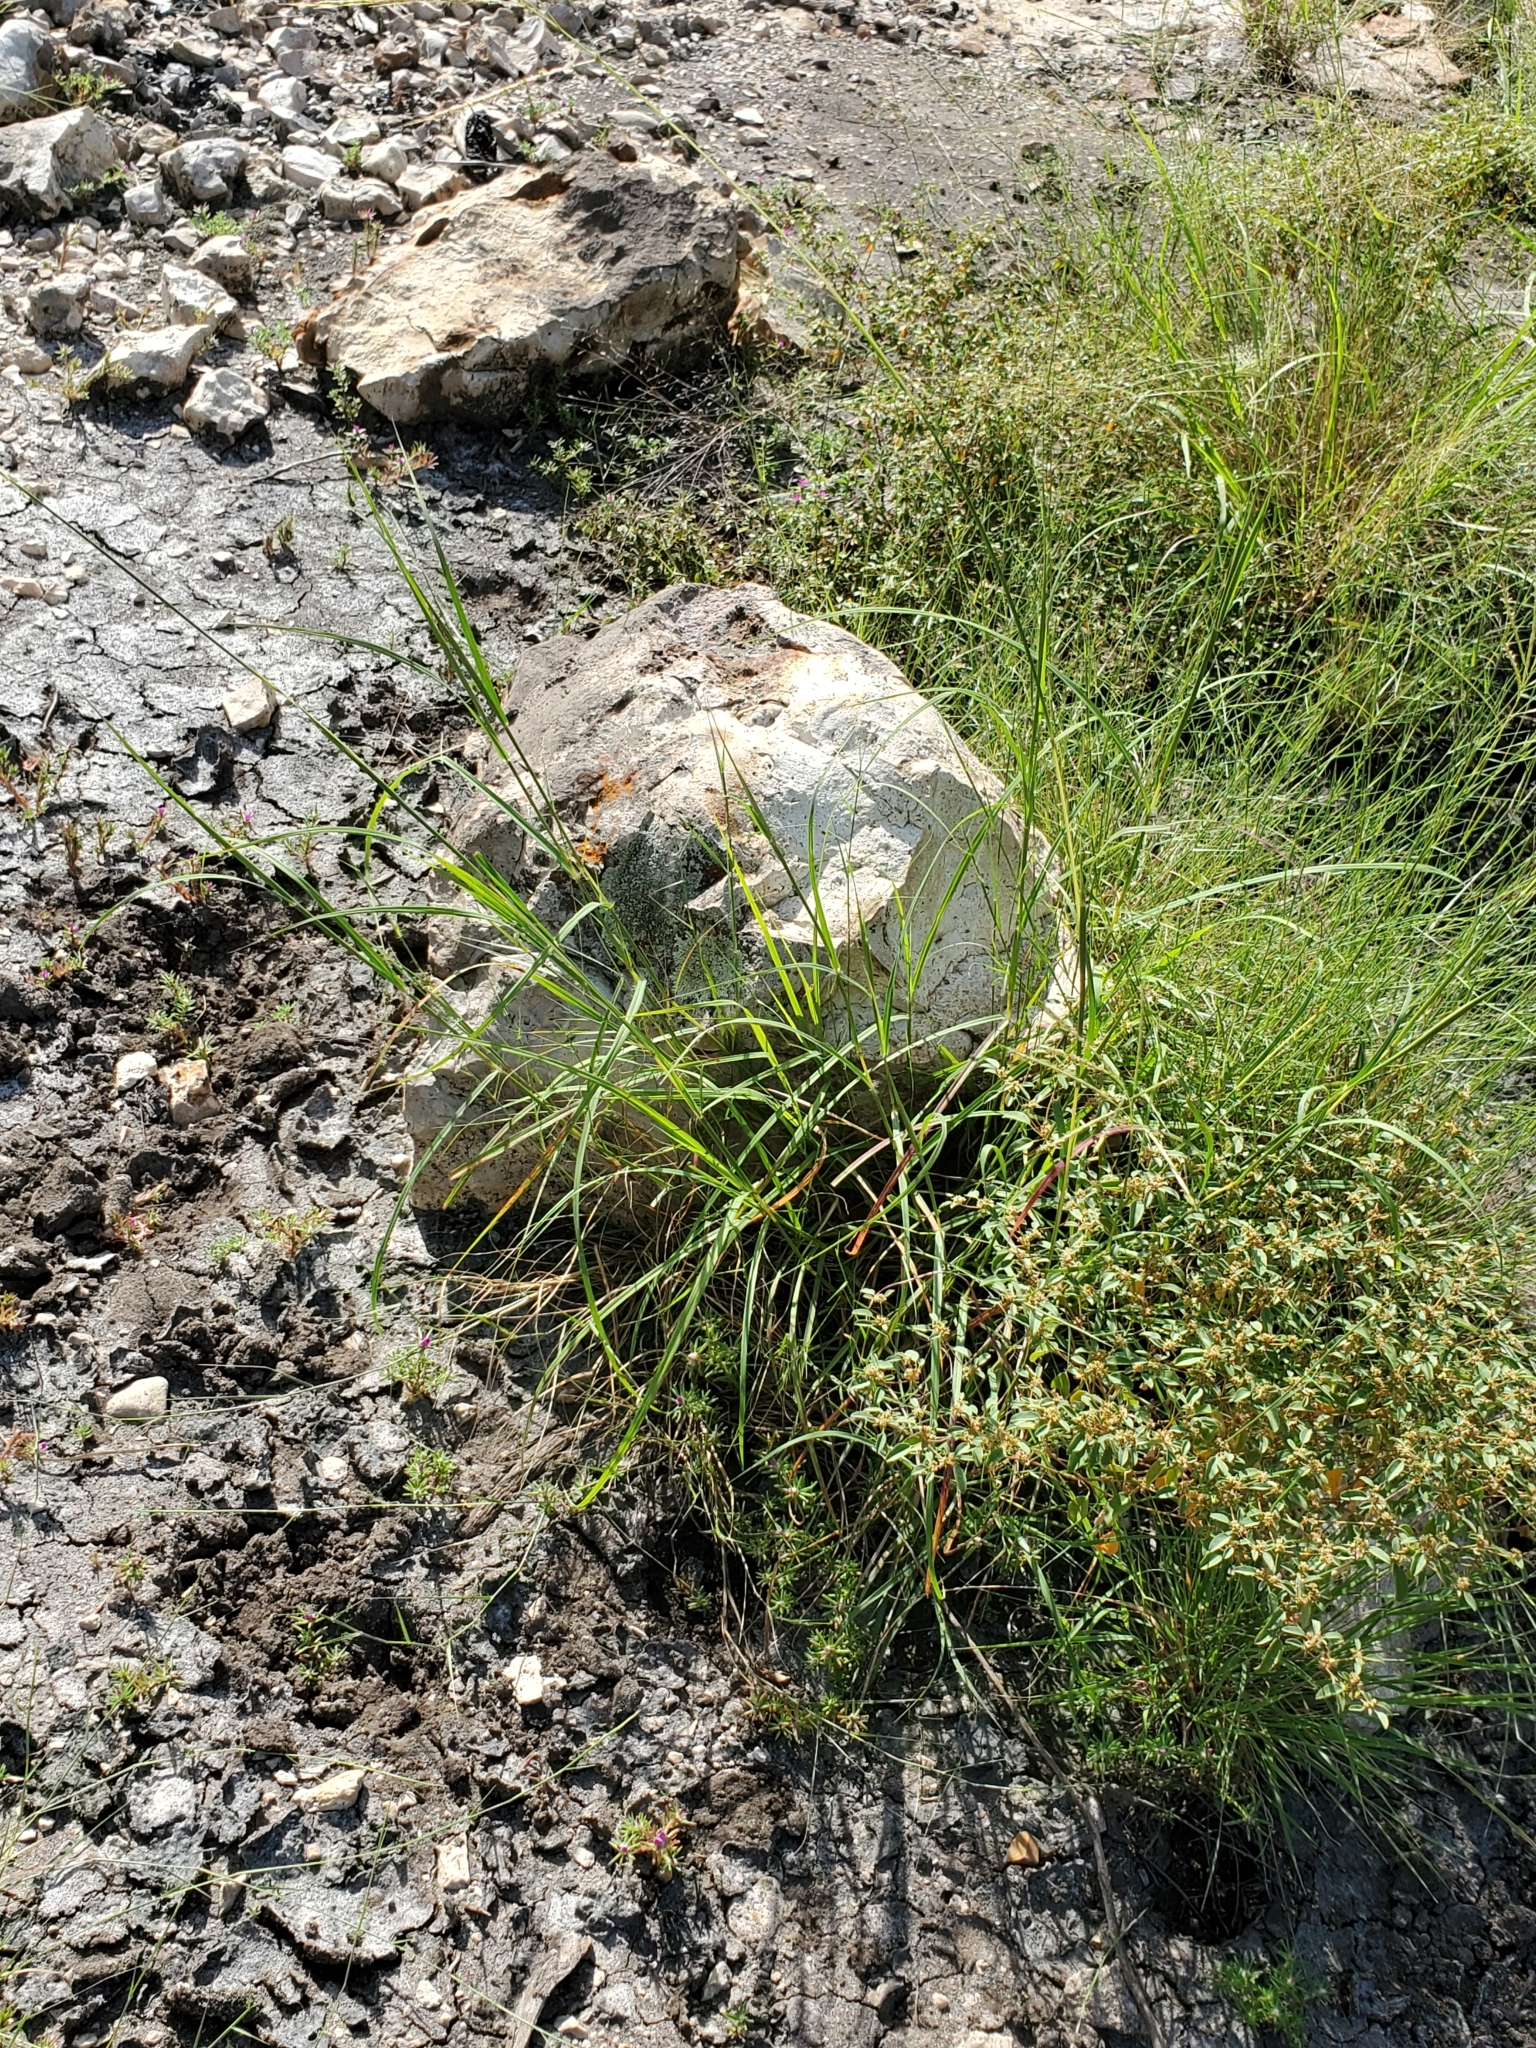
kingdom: Plantae
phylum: Tracheophyta
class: Liliopsida
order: Poales
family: Poaceae
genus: Bothriochloa
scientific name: Bothriochloa ischaemum
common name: Yellow bluestem
